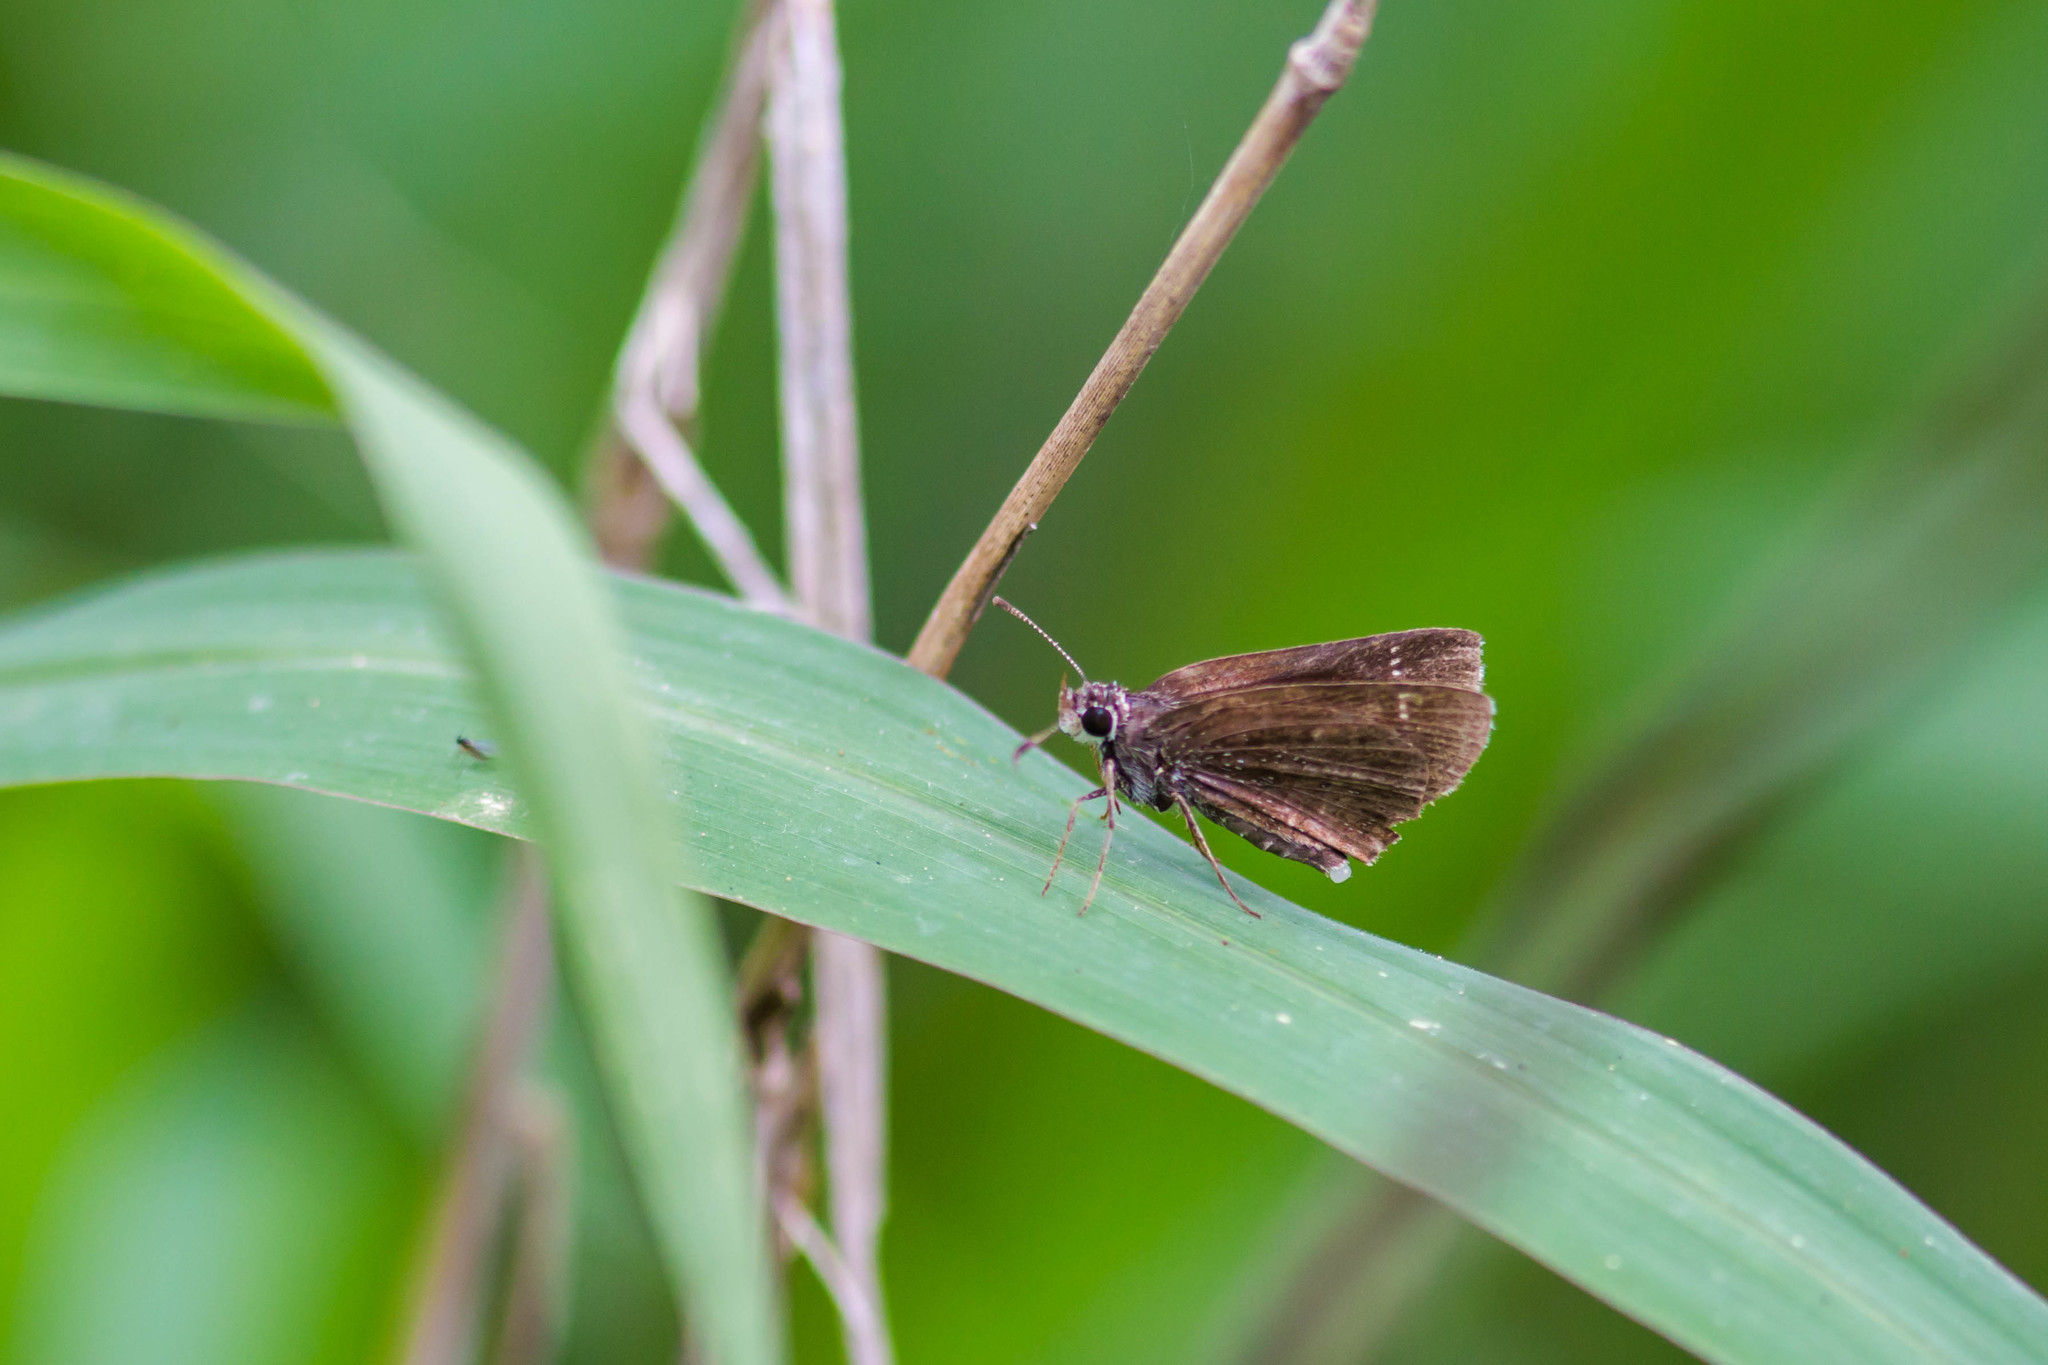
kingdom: Animalia
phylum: Arthropoda
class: Insecta
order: Lepidoptera
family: Hesperiidae
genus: Mastor
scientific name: Mastor celia
